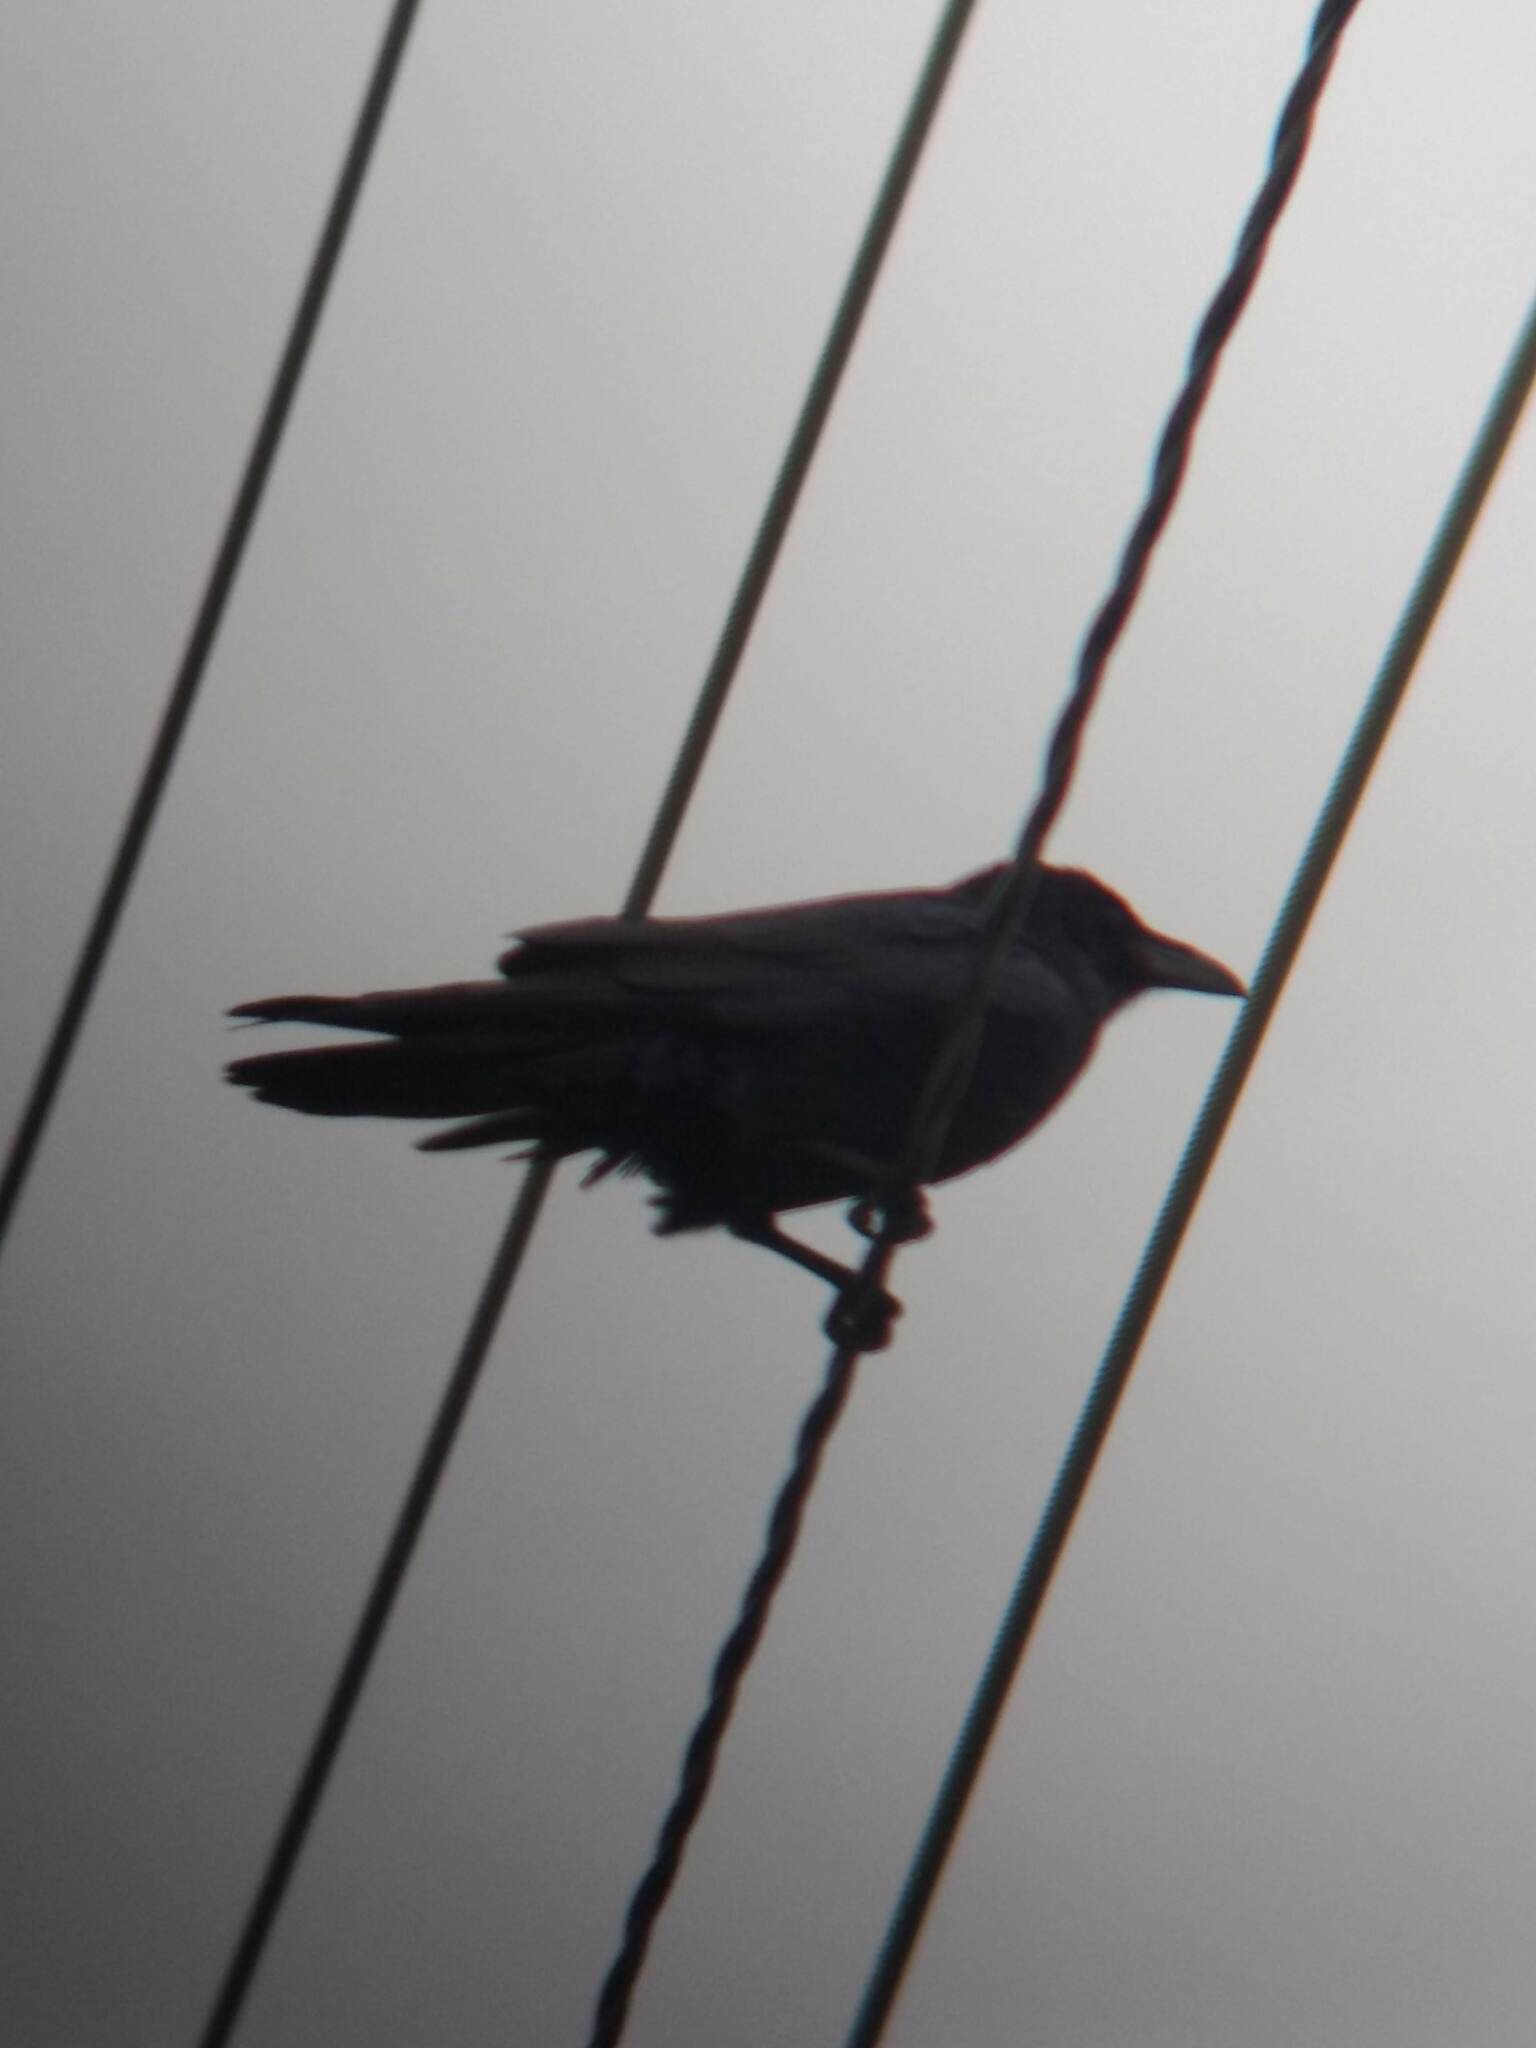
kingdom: Animalia
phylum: Chordata
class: Aves
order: Passeriformes
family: Corvidae
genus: Corvus
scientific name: Corvus corax
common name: Common raven
